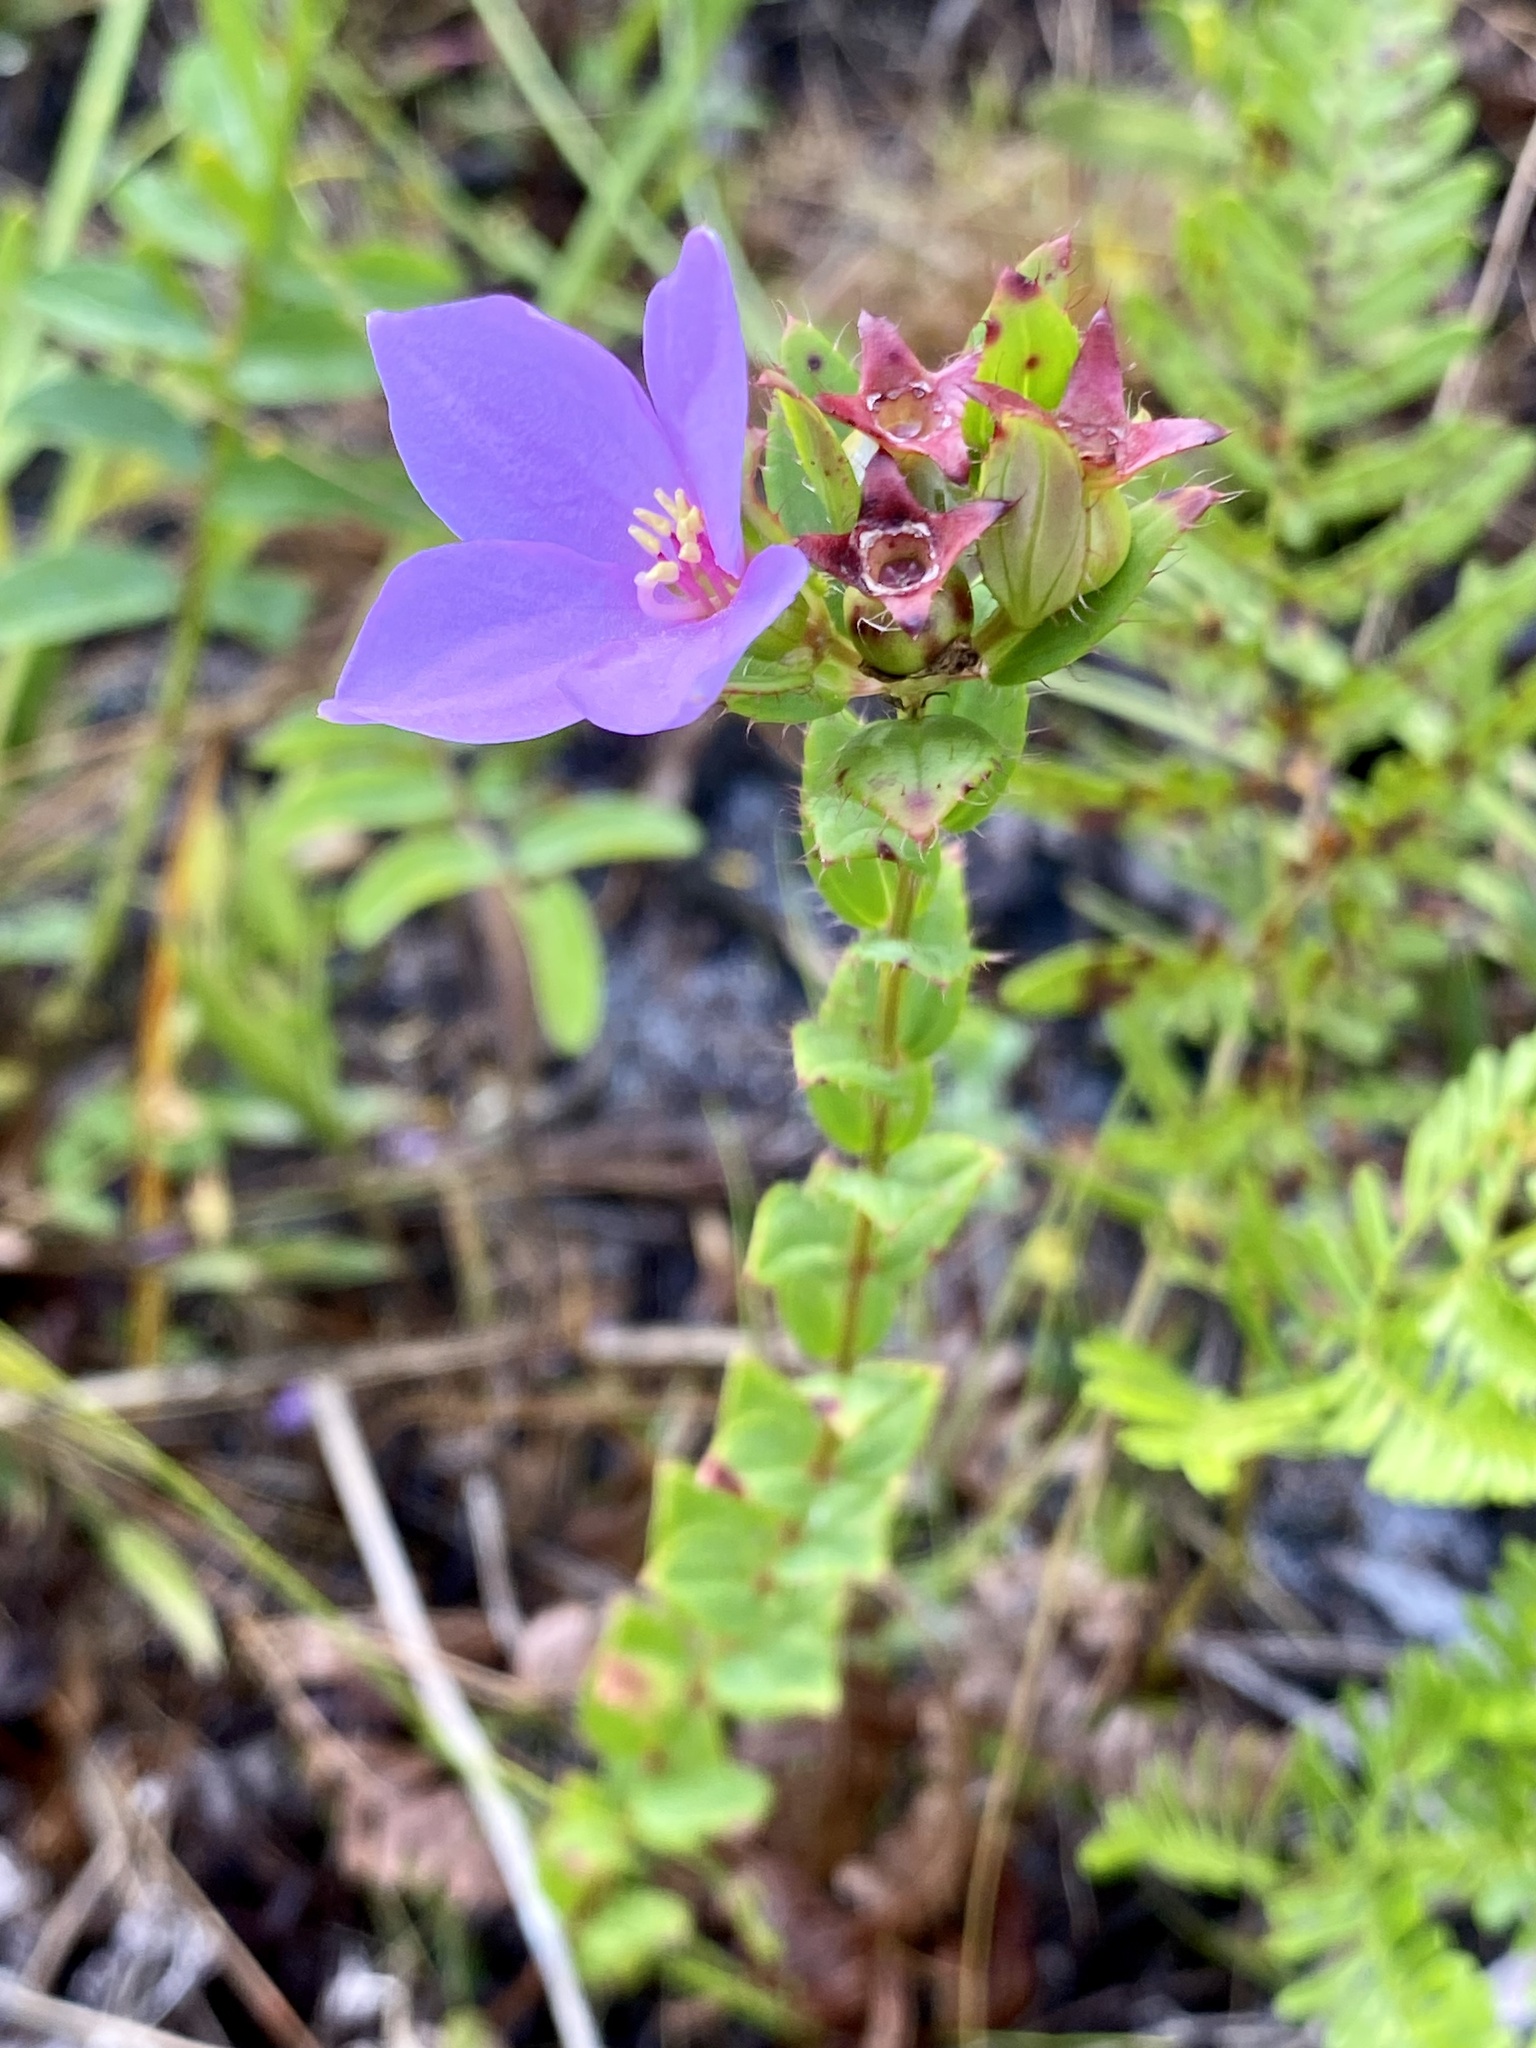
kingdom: Plantae
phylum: Tracheophyta
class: Magnoliopsida
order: Myrtales
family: Melastomataceae
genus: Rhexia
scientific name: Rhexia petiolata
